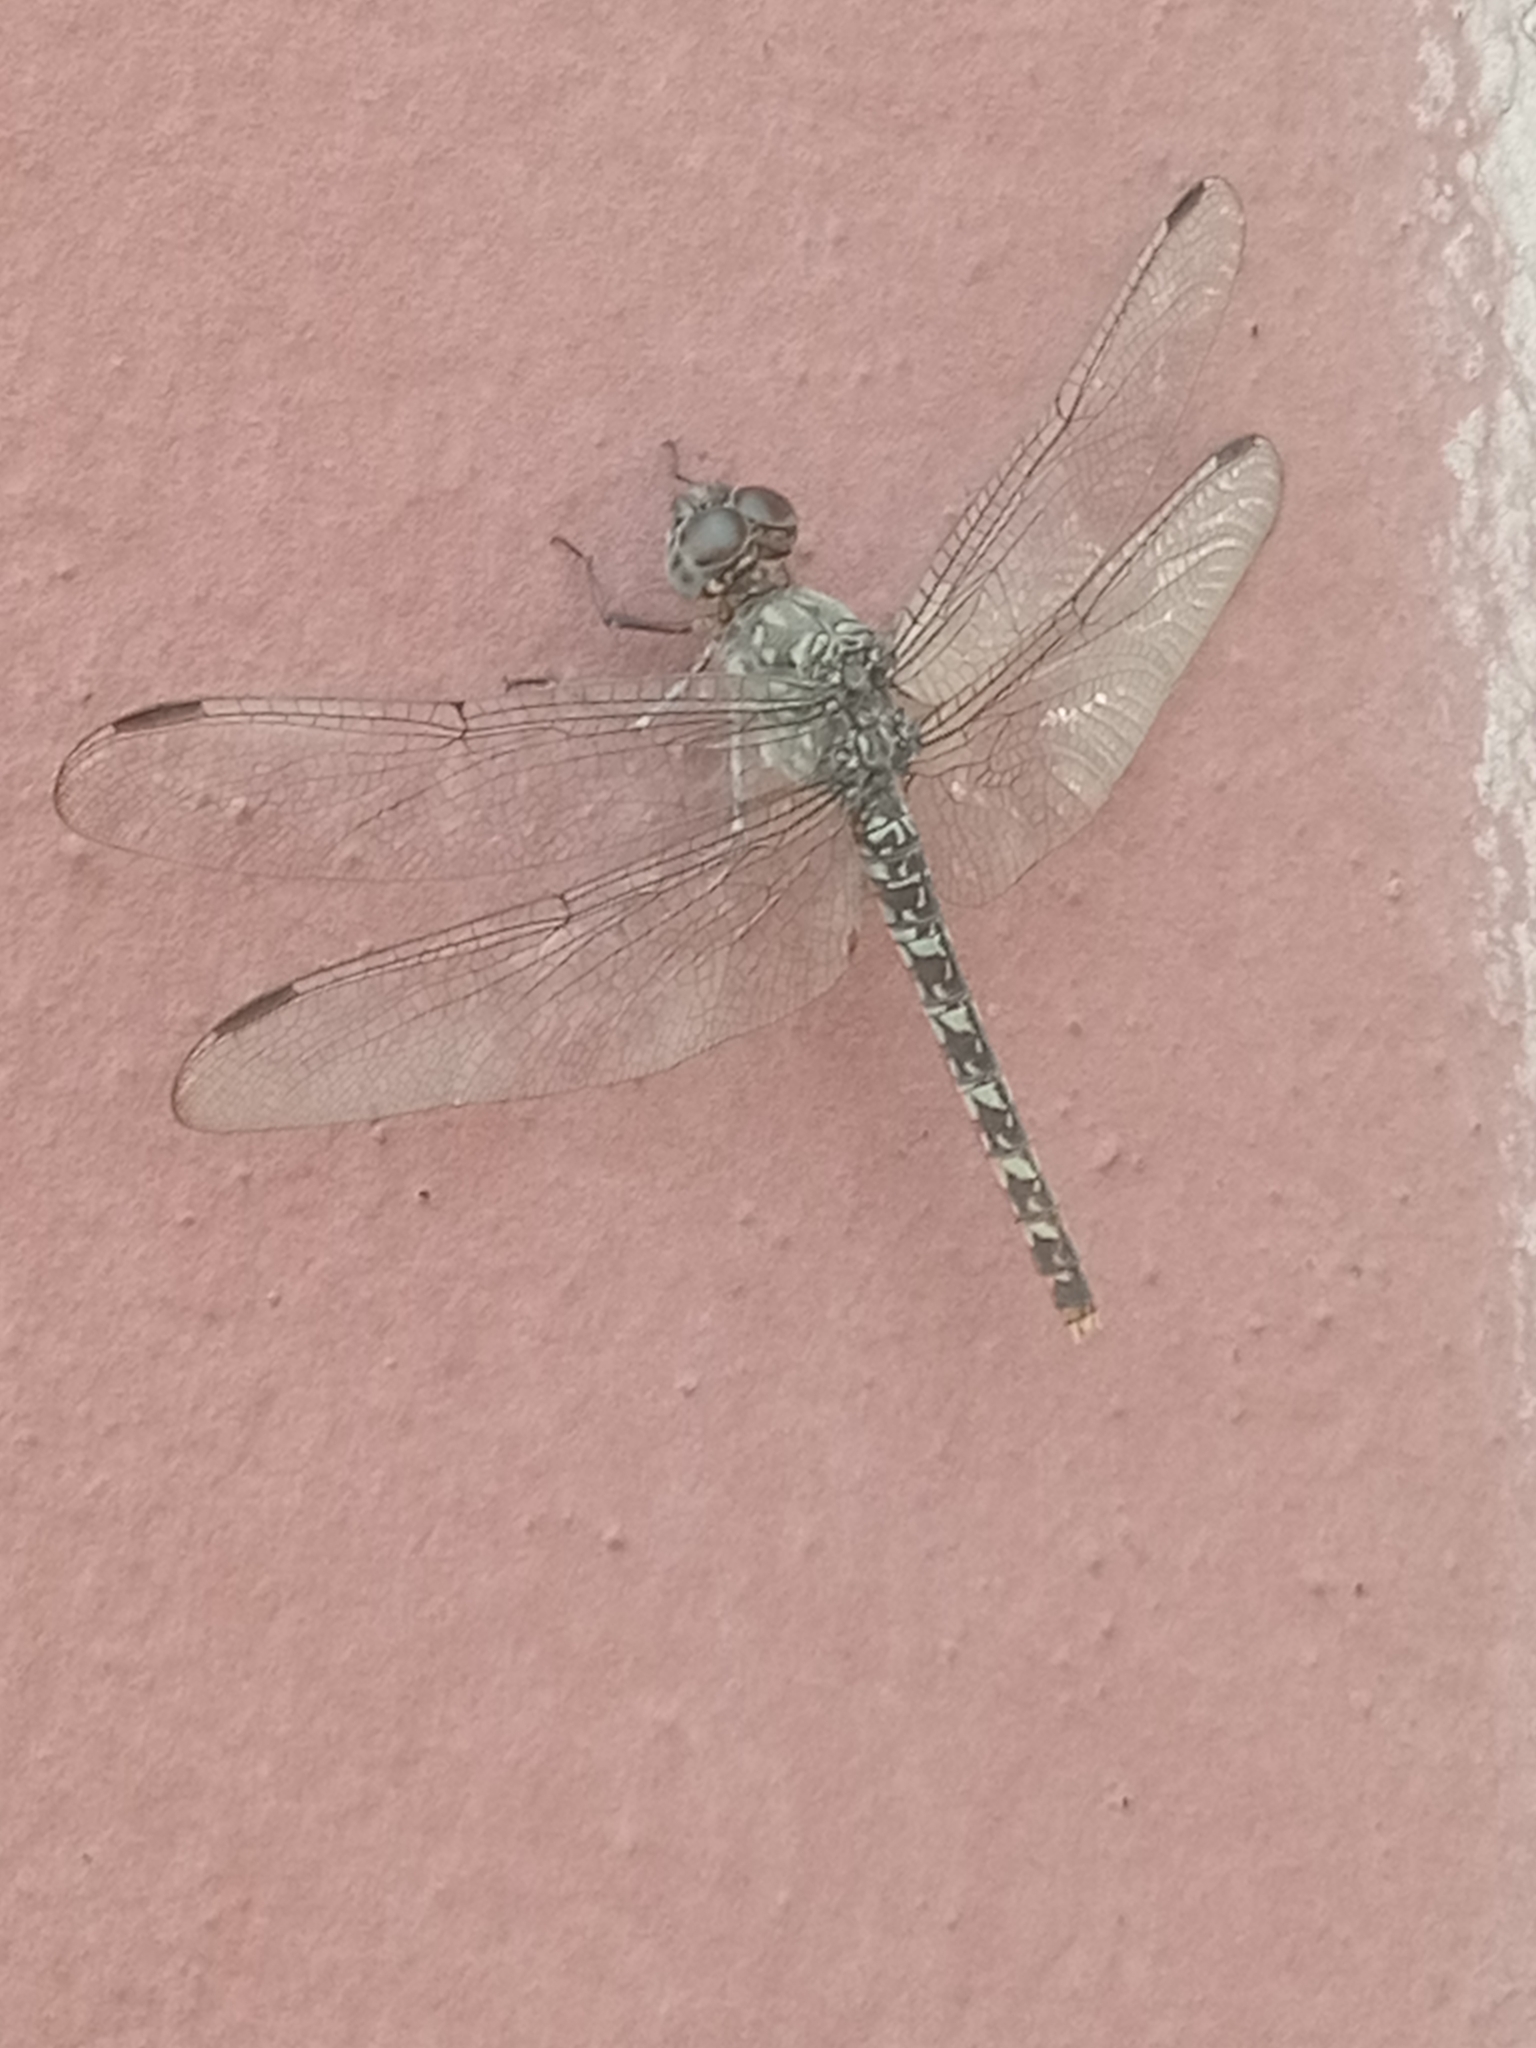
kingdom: Animalia
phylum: Arthropoda
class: Insecta
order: Odonata
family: Libellulidae
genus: Bradinopyga
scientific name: Bradinopyga strachani
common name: Red rock-dweller
